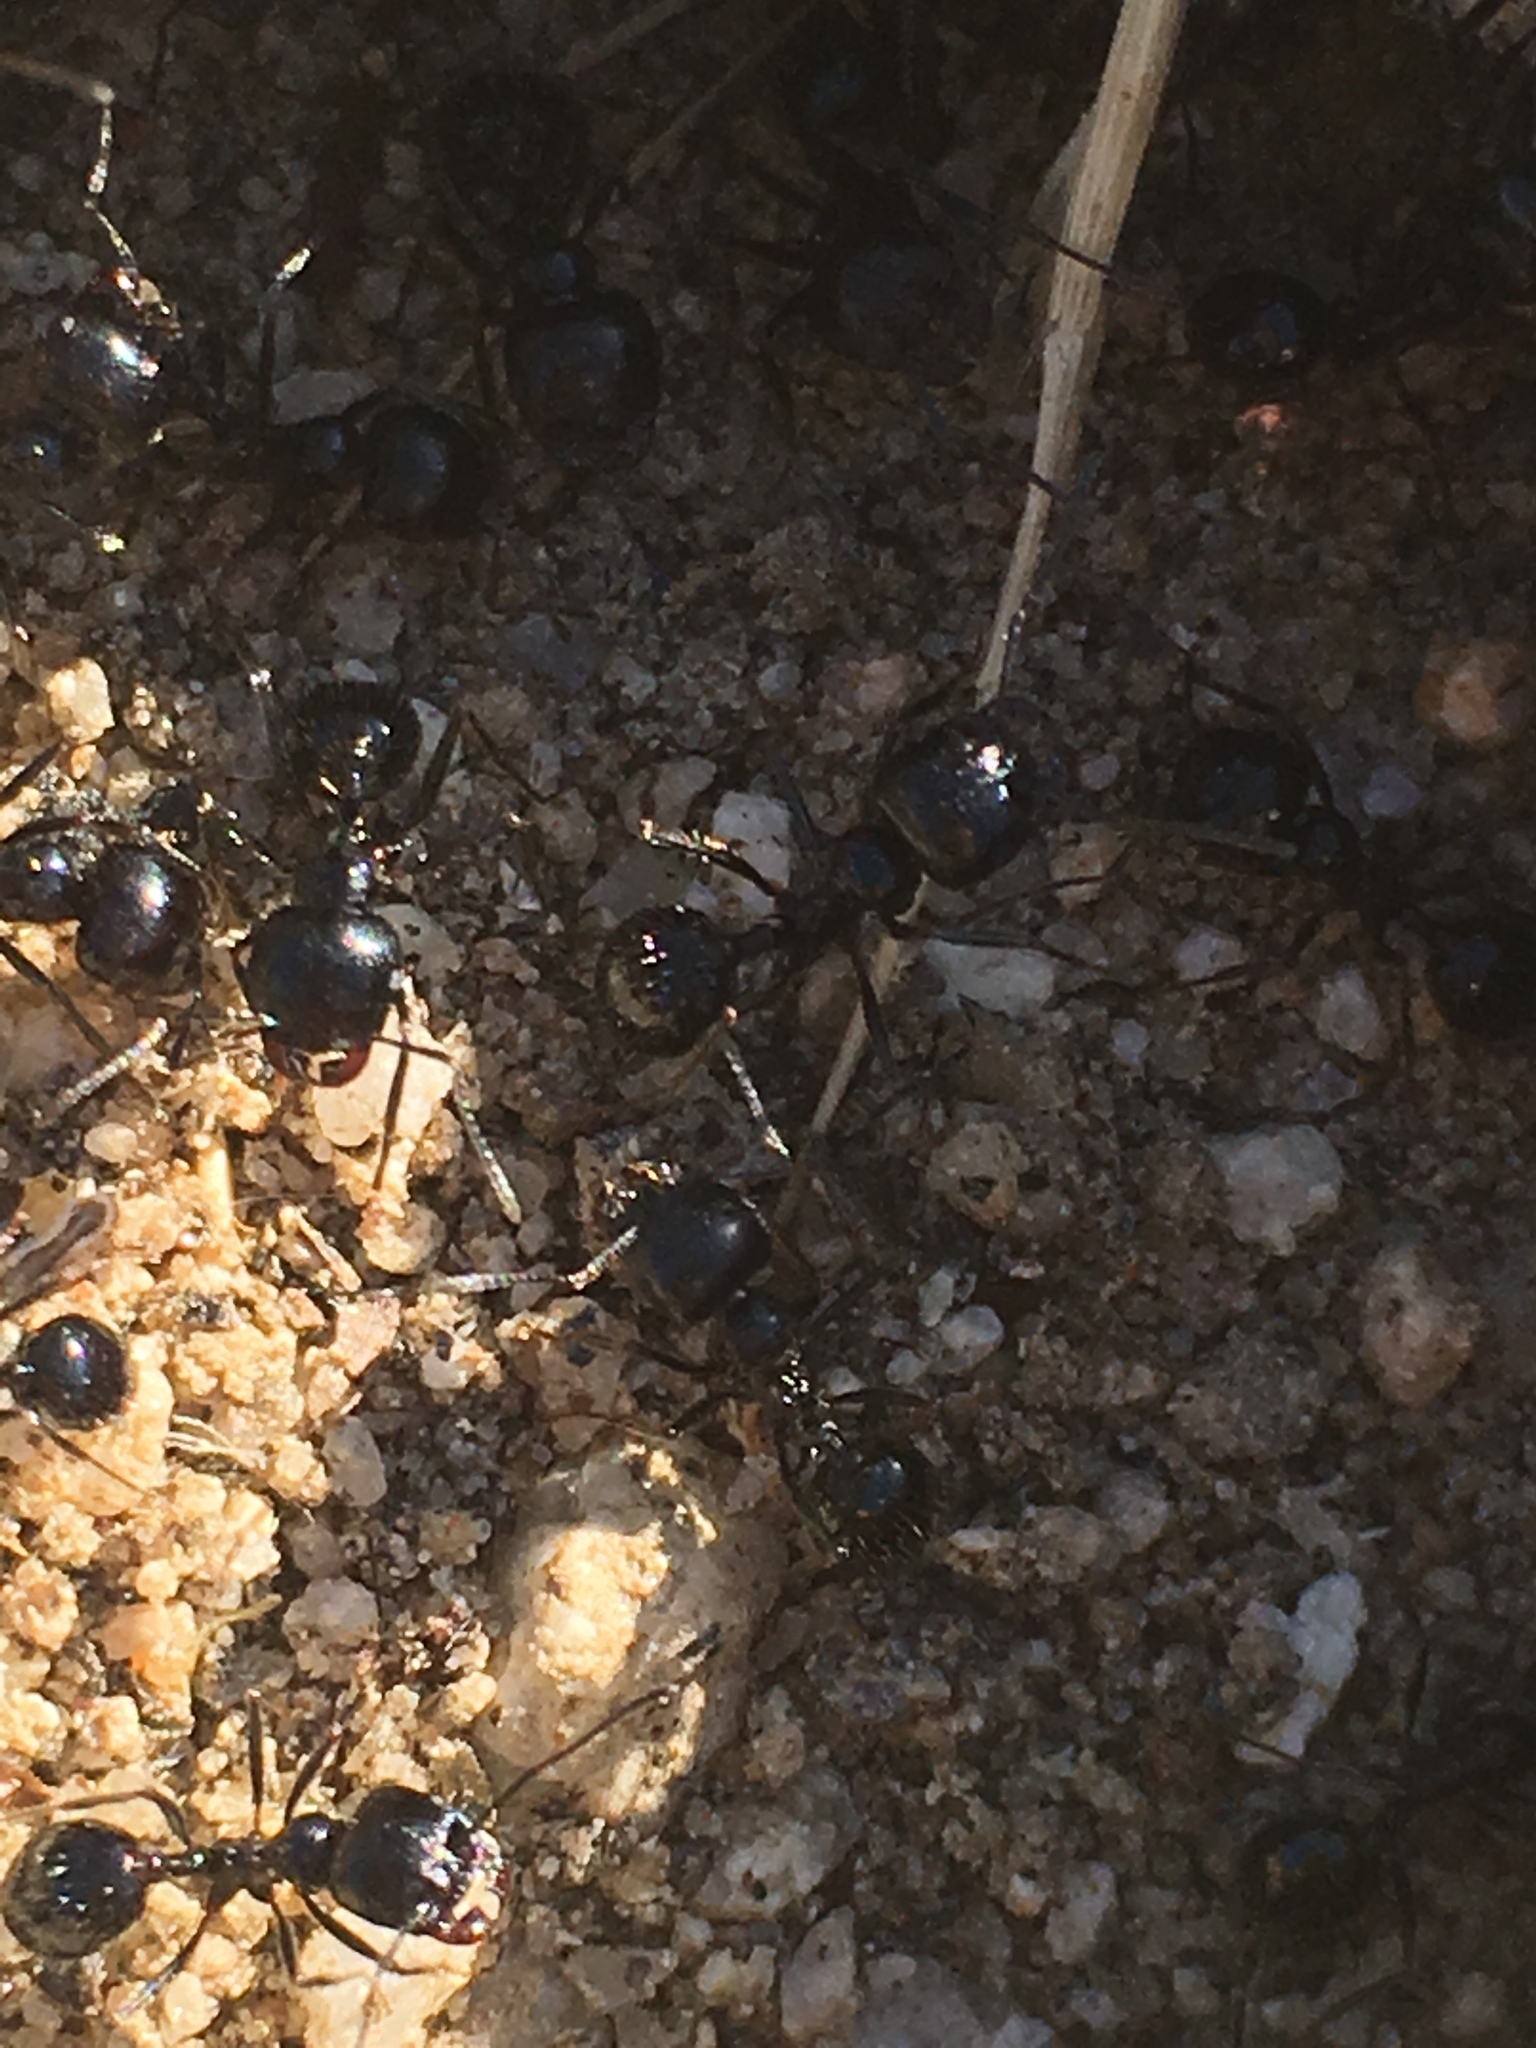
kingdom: Animalia
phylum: Arthropoda
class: Insecta
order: Hymenoptera
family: Formicidae
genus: Messor
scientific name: Messor pergandei
